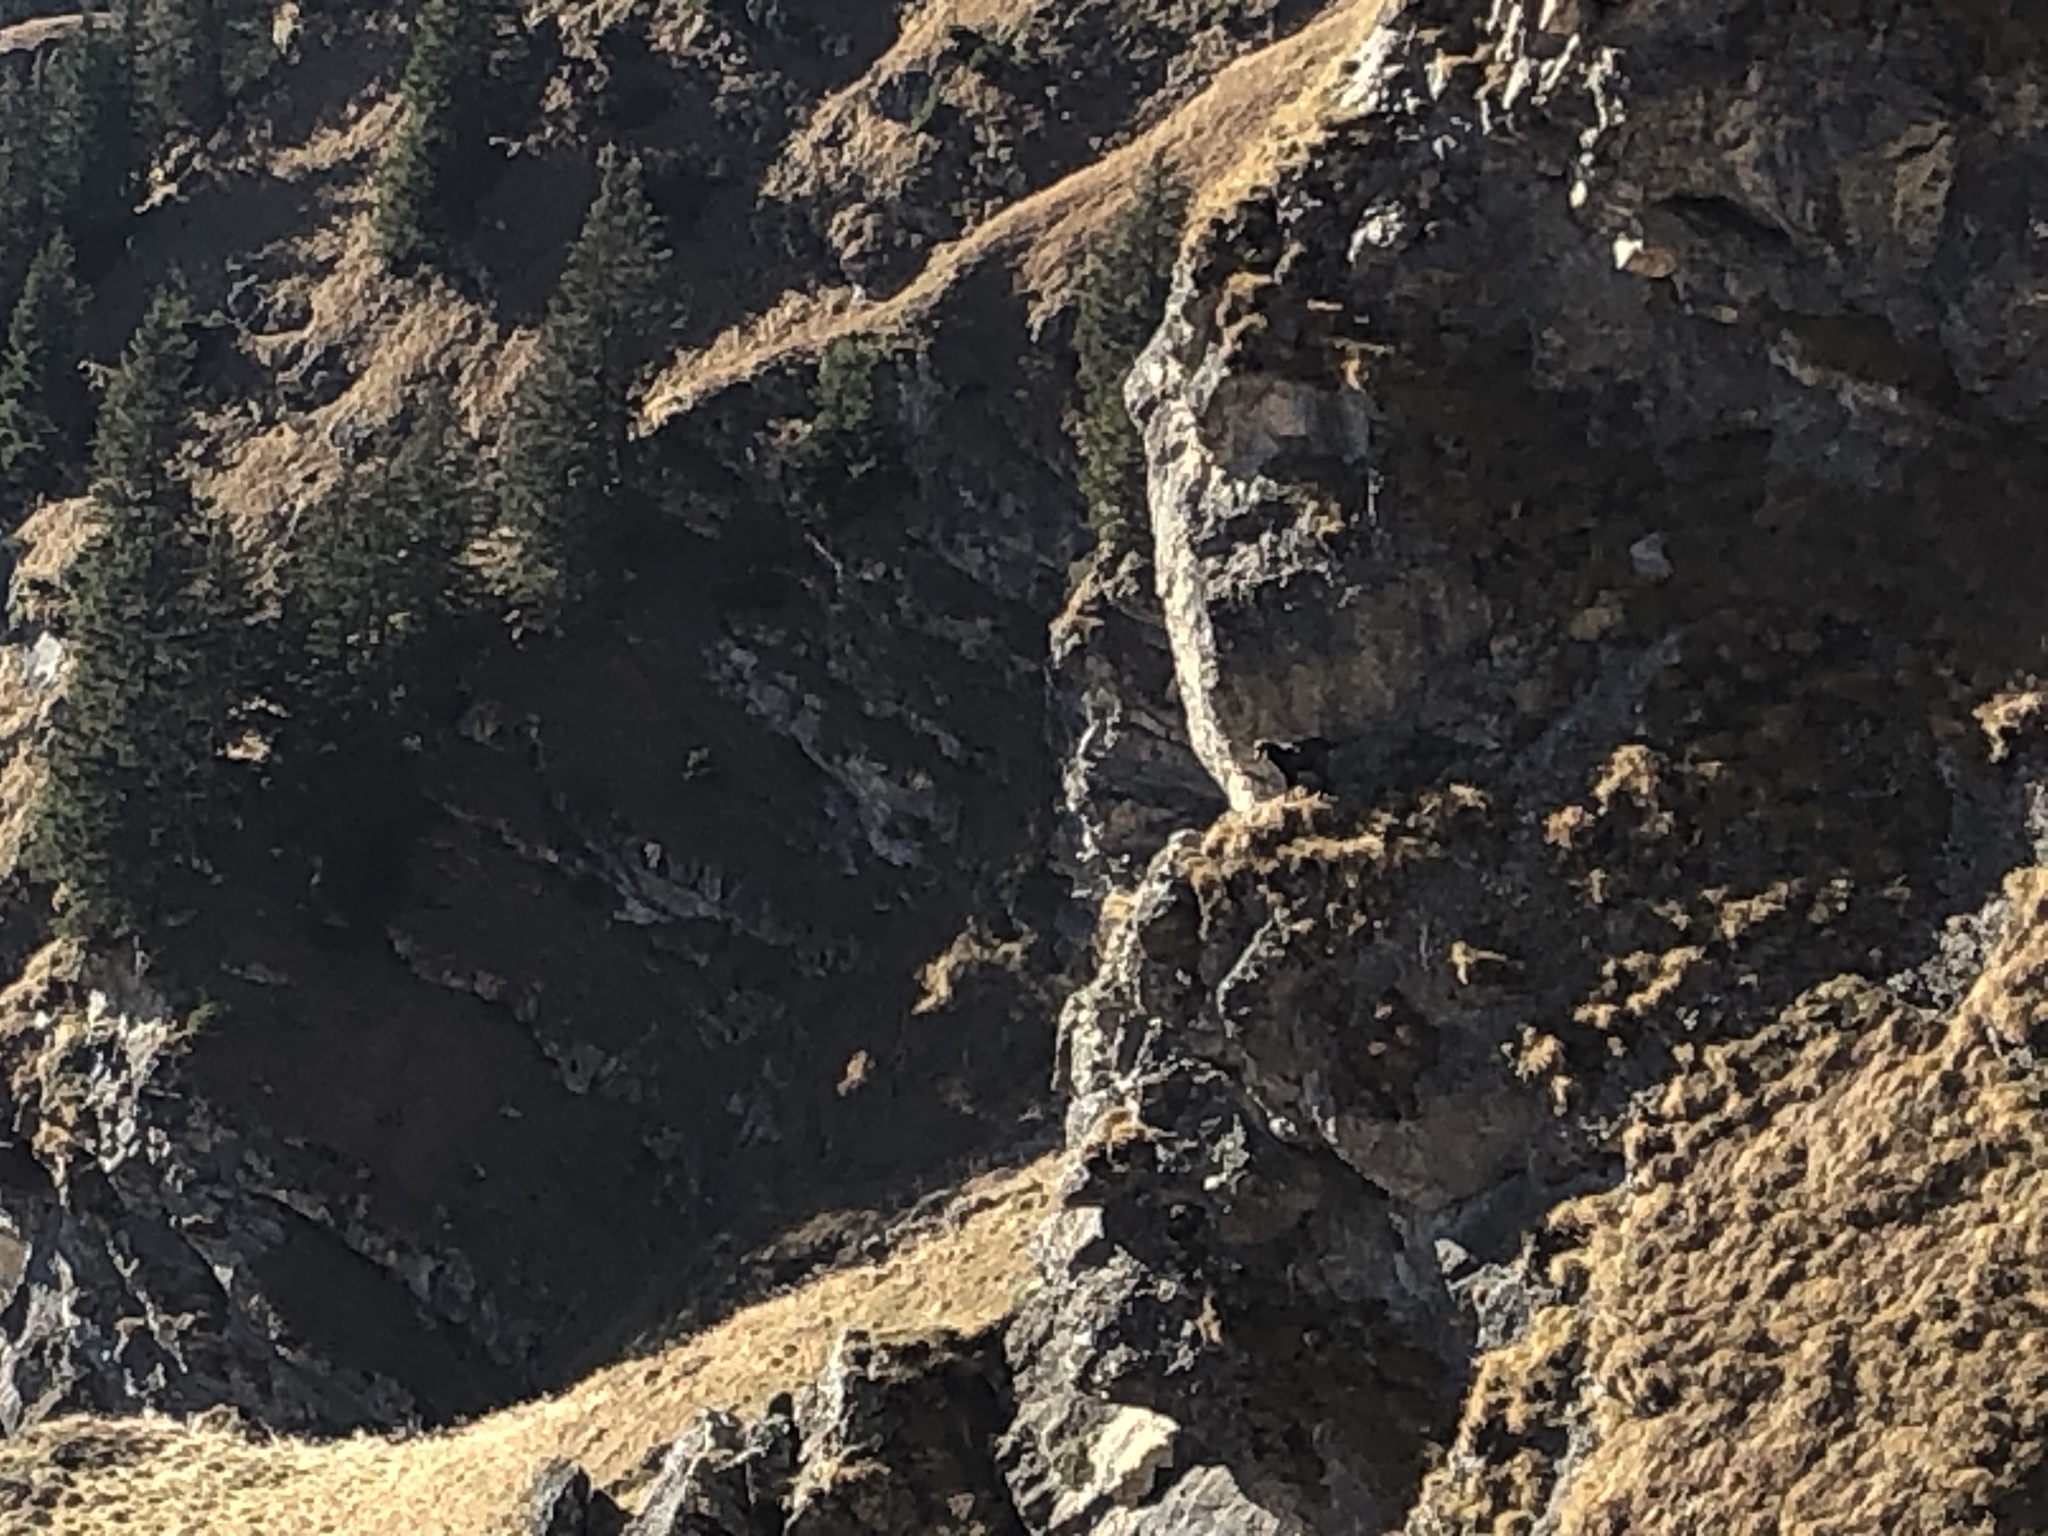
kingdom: Animalia
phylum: Chordata
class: Mammalia
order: Artiodactyla
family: Bovidae
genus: Rupicapra
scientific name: Rupicapra rupicapra
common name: Chamois
